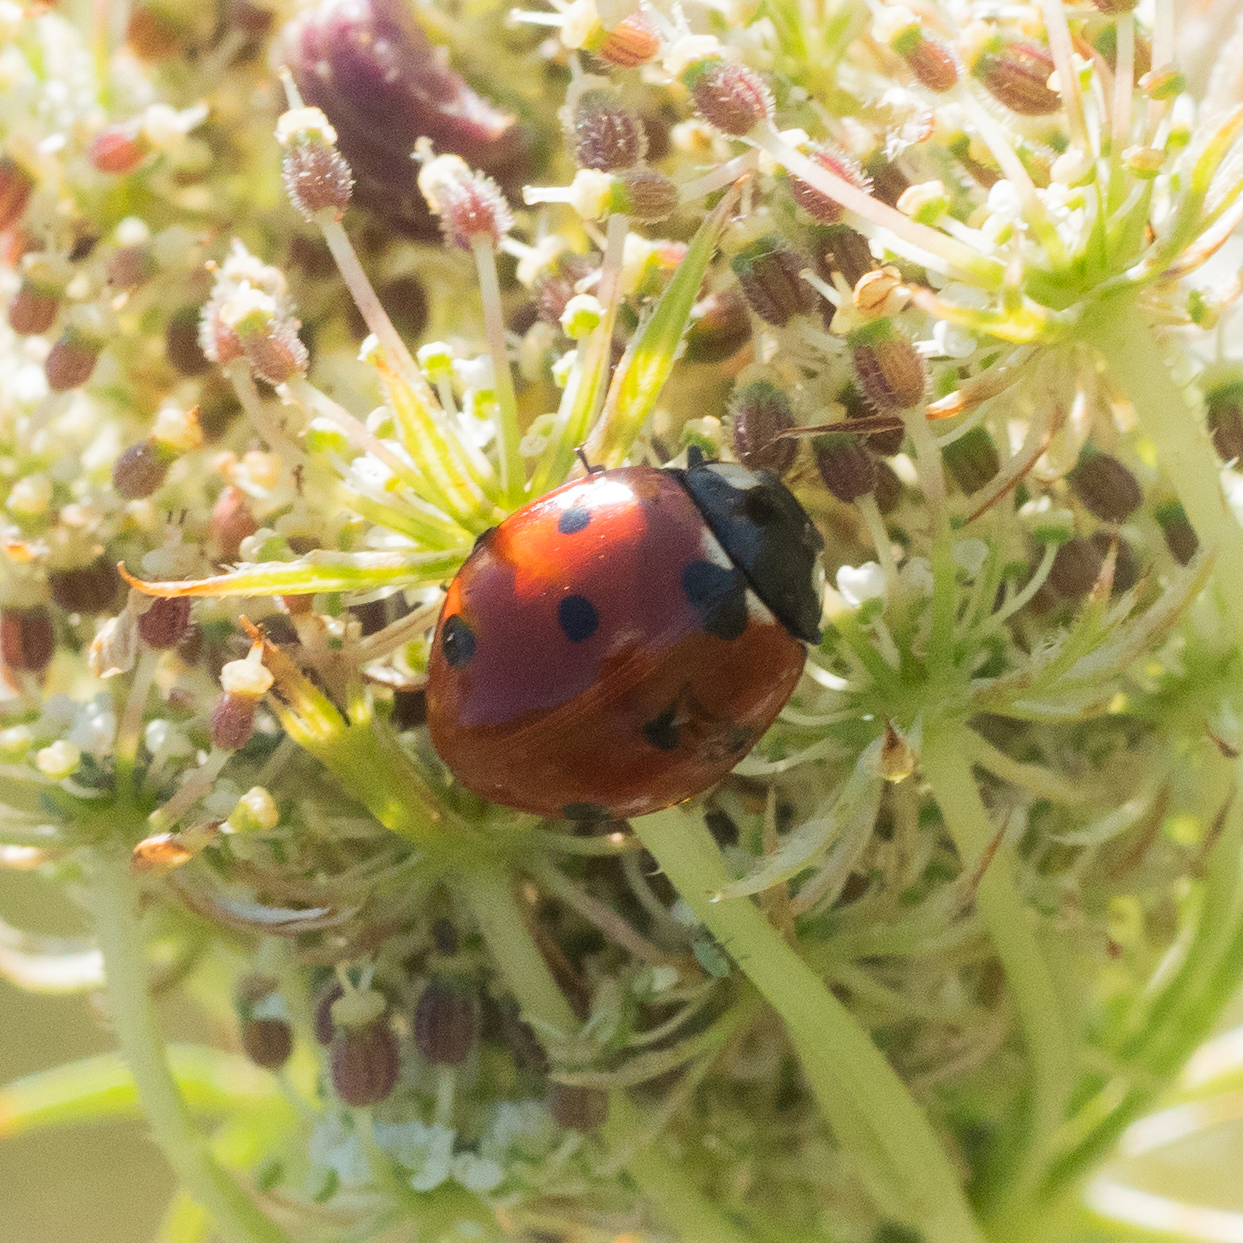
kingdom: Animalia
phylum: Arthropoda
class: Insecta
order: Coleoptera
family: Coccinellidae
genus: Coccinella
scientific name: Coccinella septempunctata
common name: Sevenspotted lady beetle
